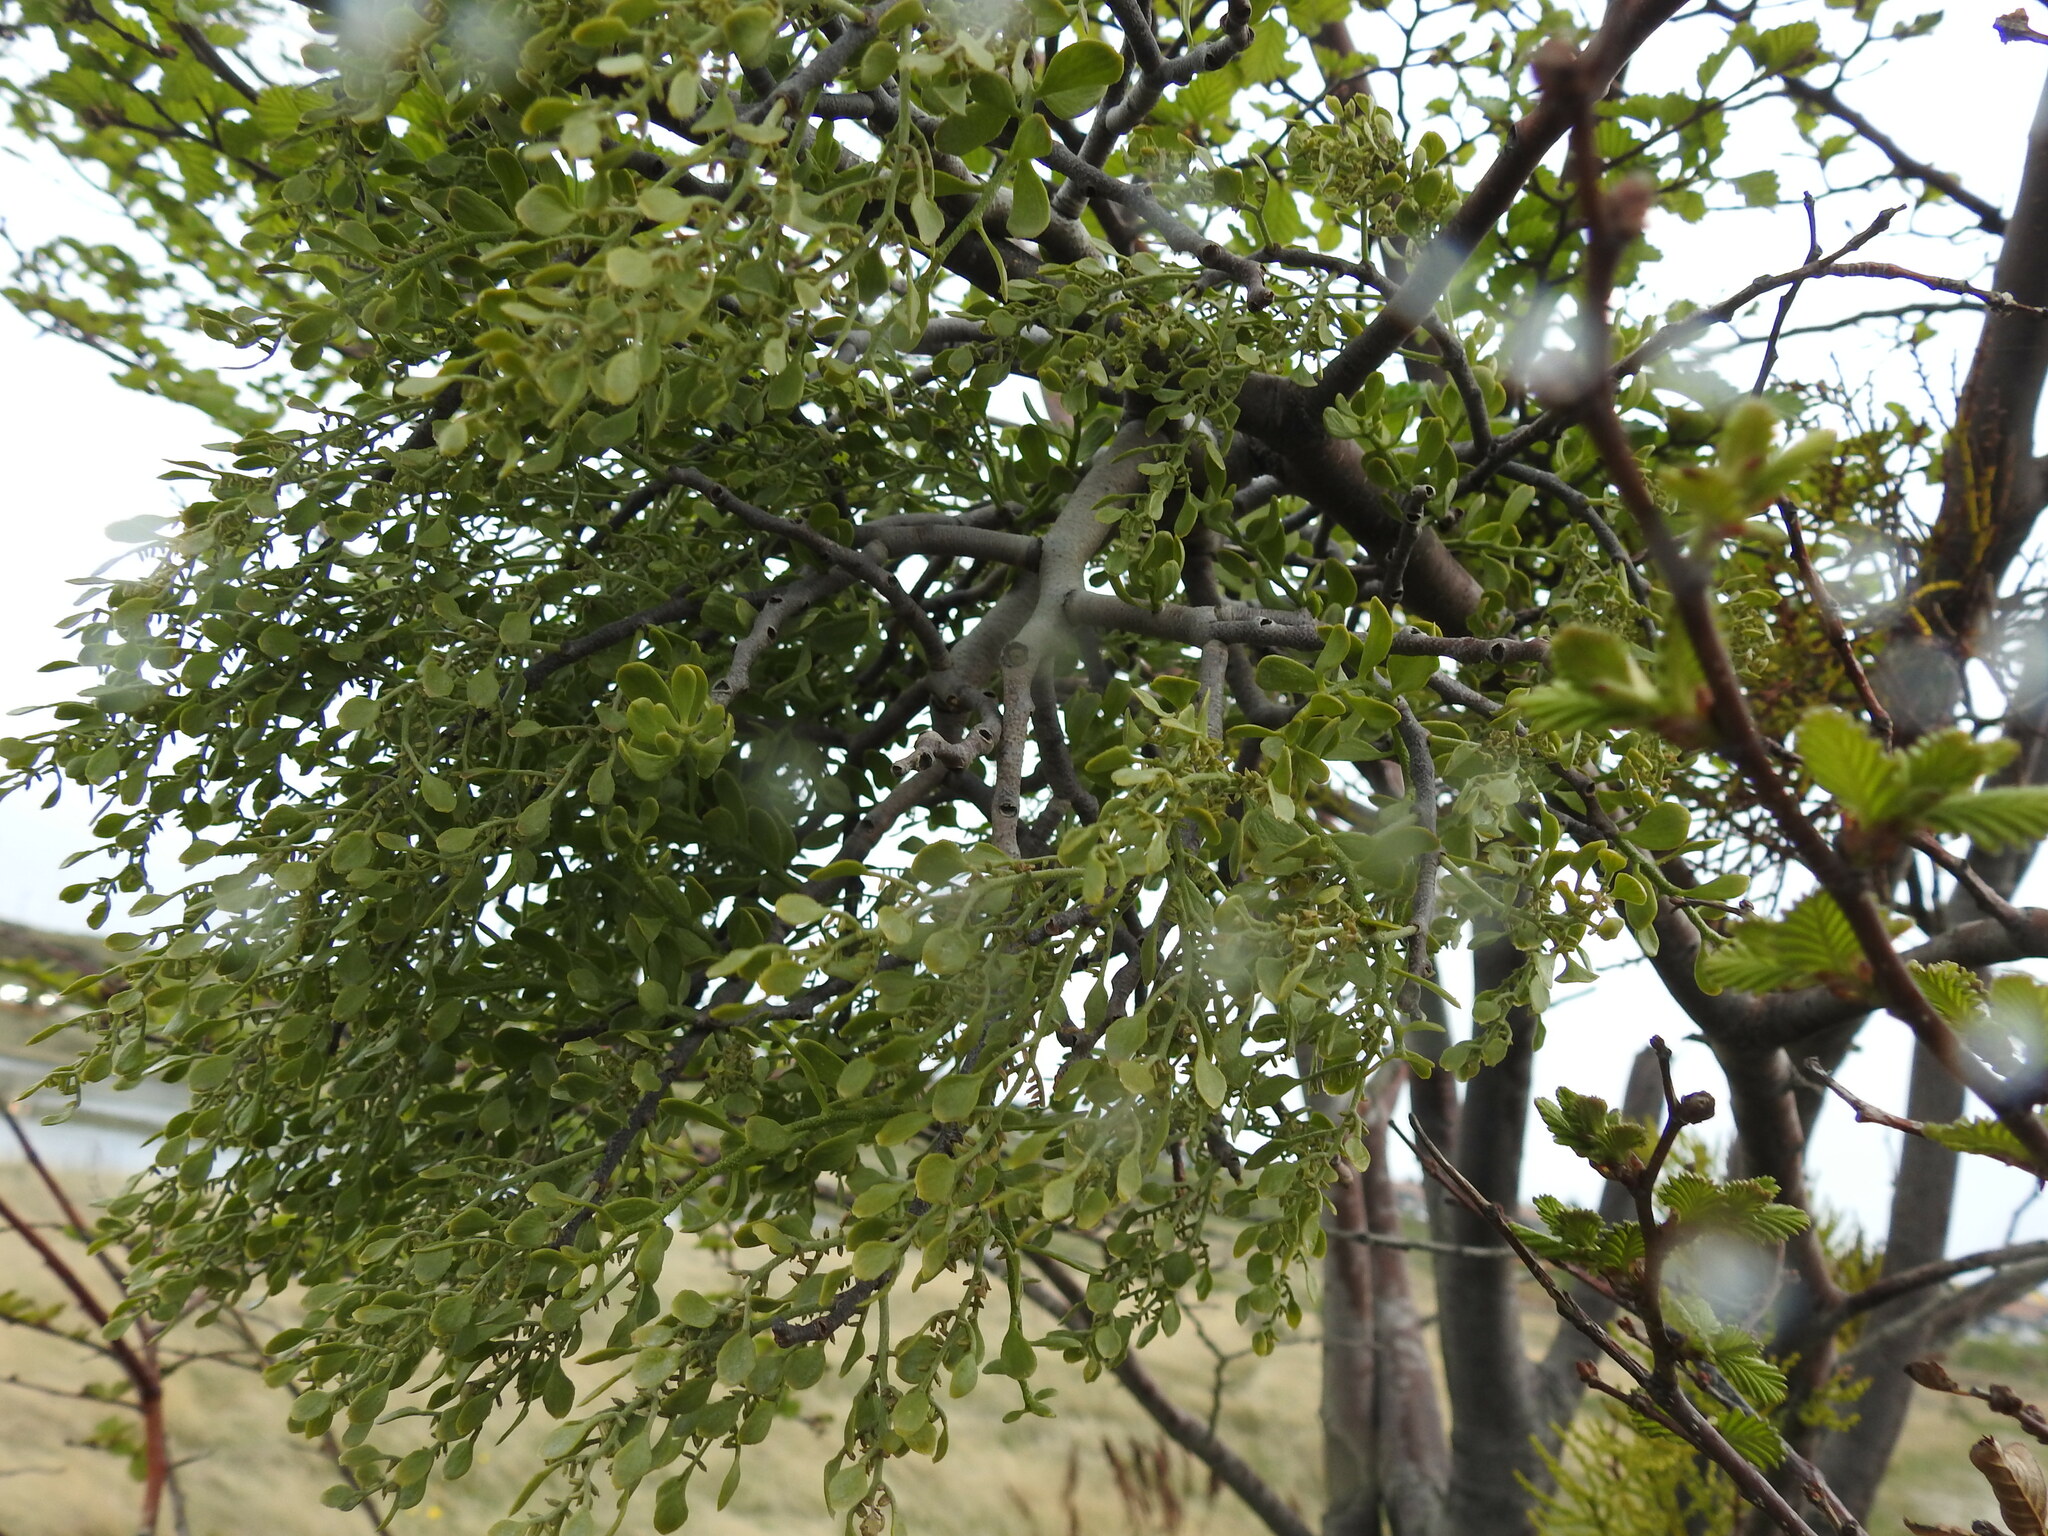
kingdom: Plantae
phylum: Tracheophyta
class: Magnoliopsida
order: Santalales
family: Misodendraceae
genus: Misodendrum
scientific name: Misodendrum quadriflorum
